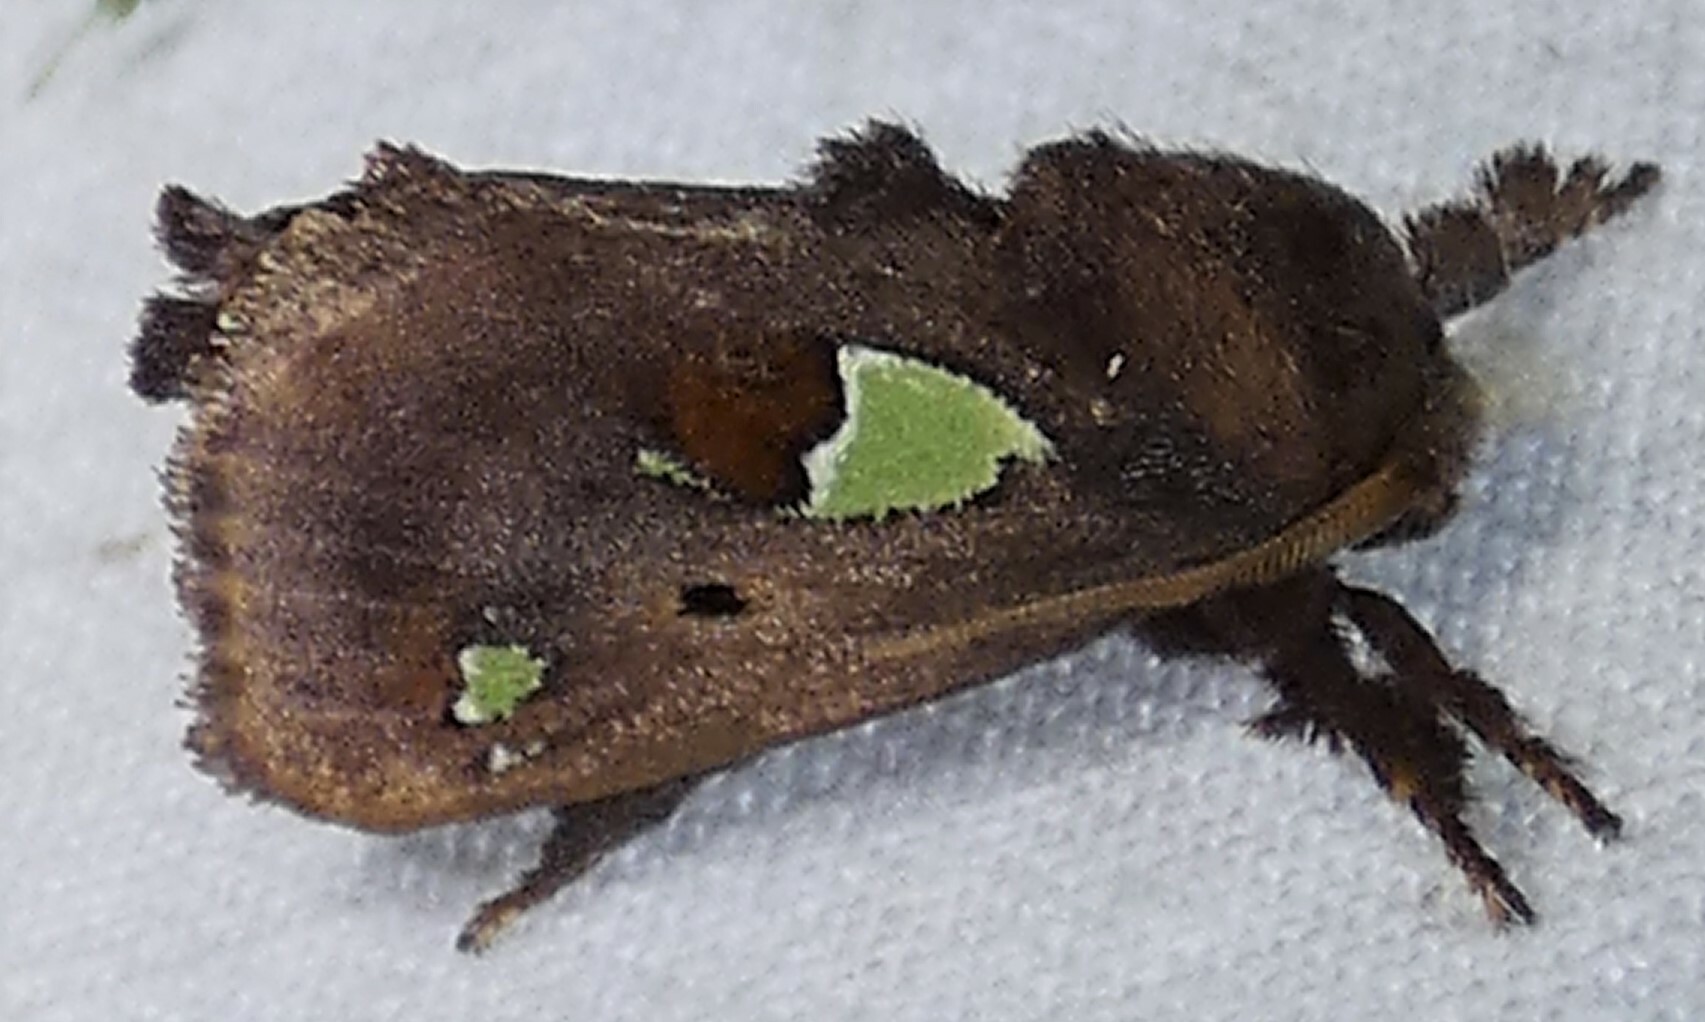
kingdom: Animalia
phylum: Arthropoda
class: Insecta
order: Lepidoptera
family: Limacodidae
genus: Euclea
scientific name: Euclea delphinii
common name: Spiny oak-slug moth
